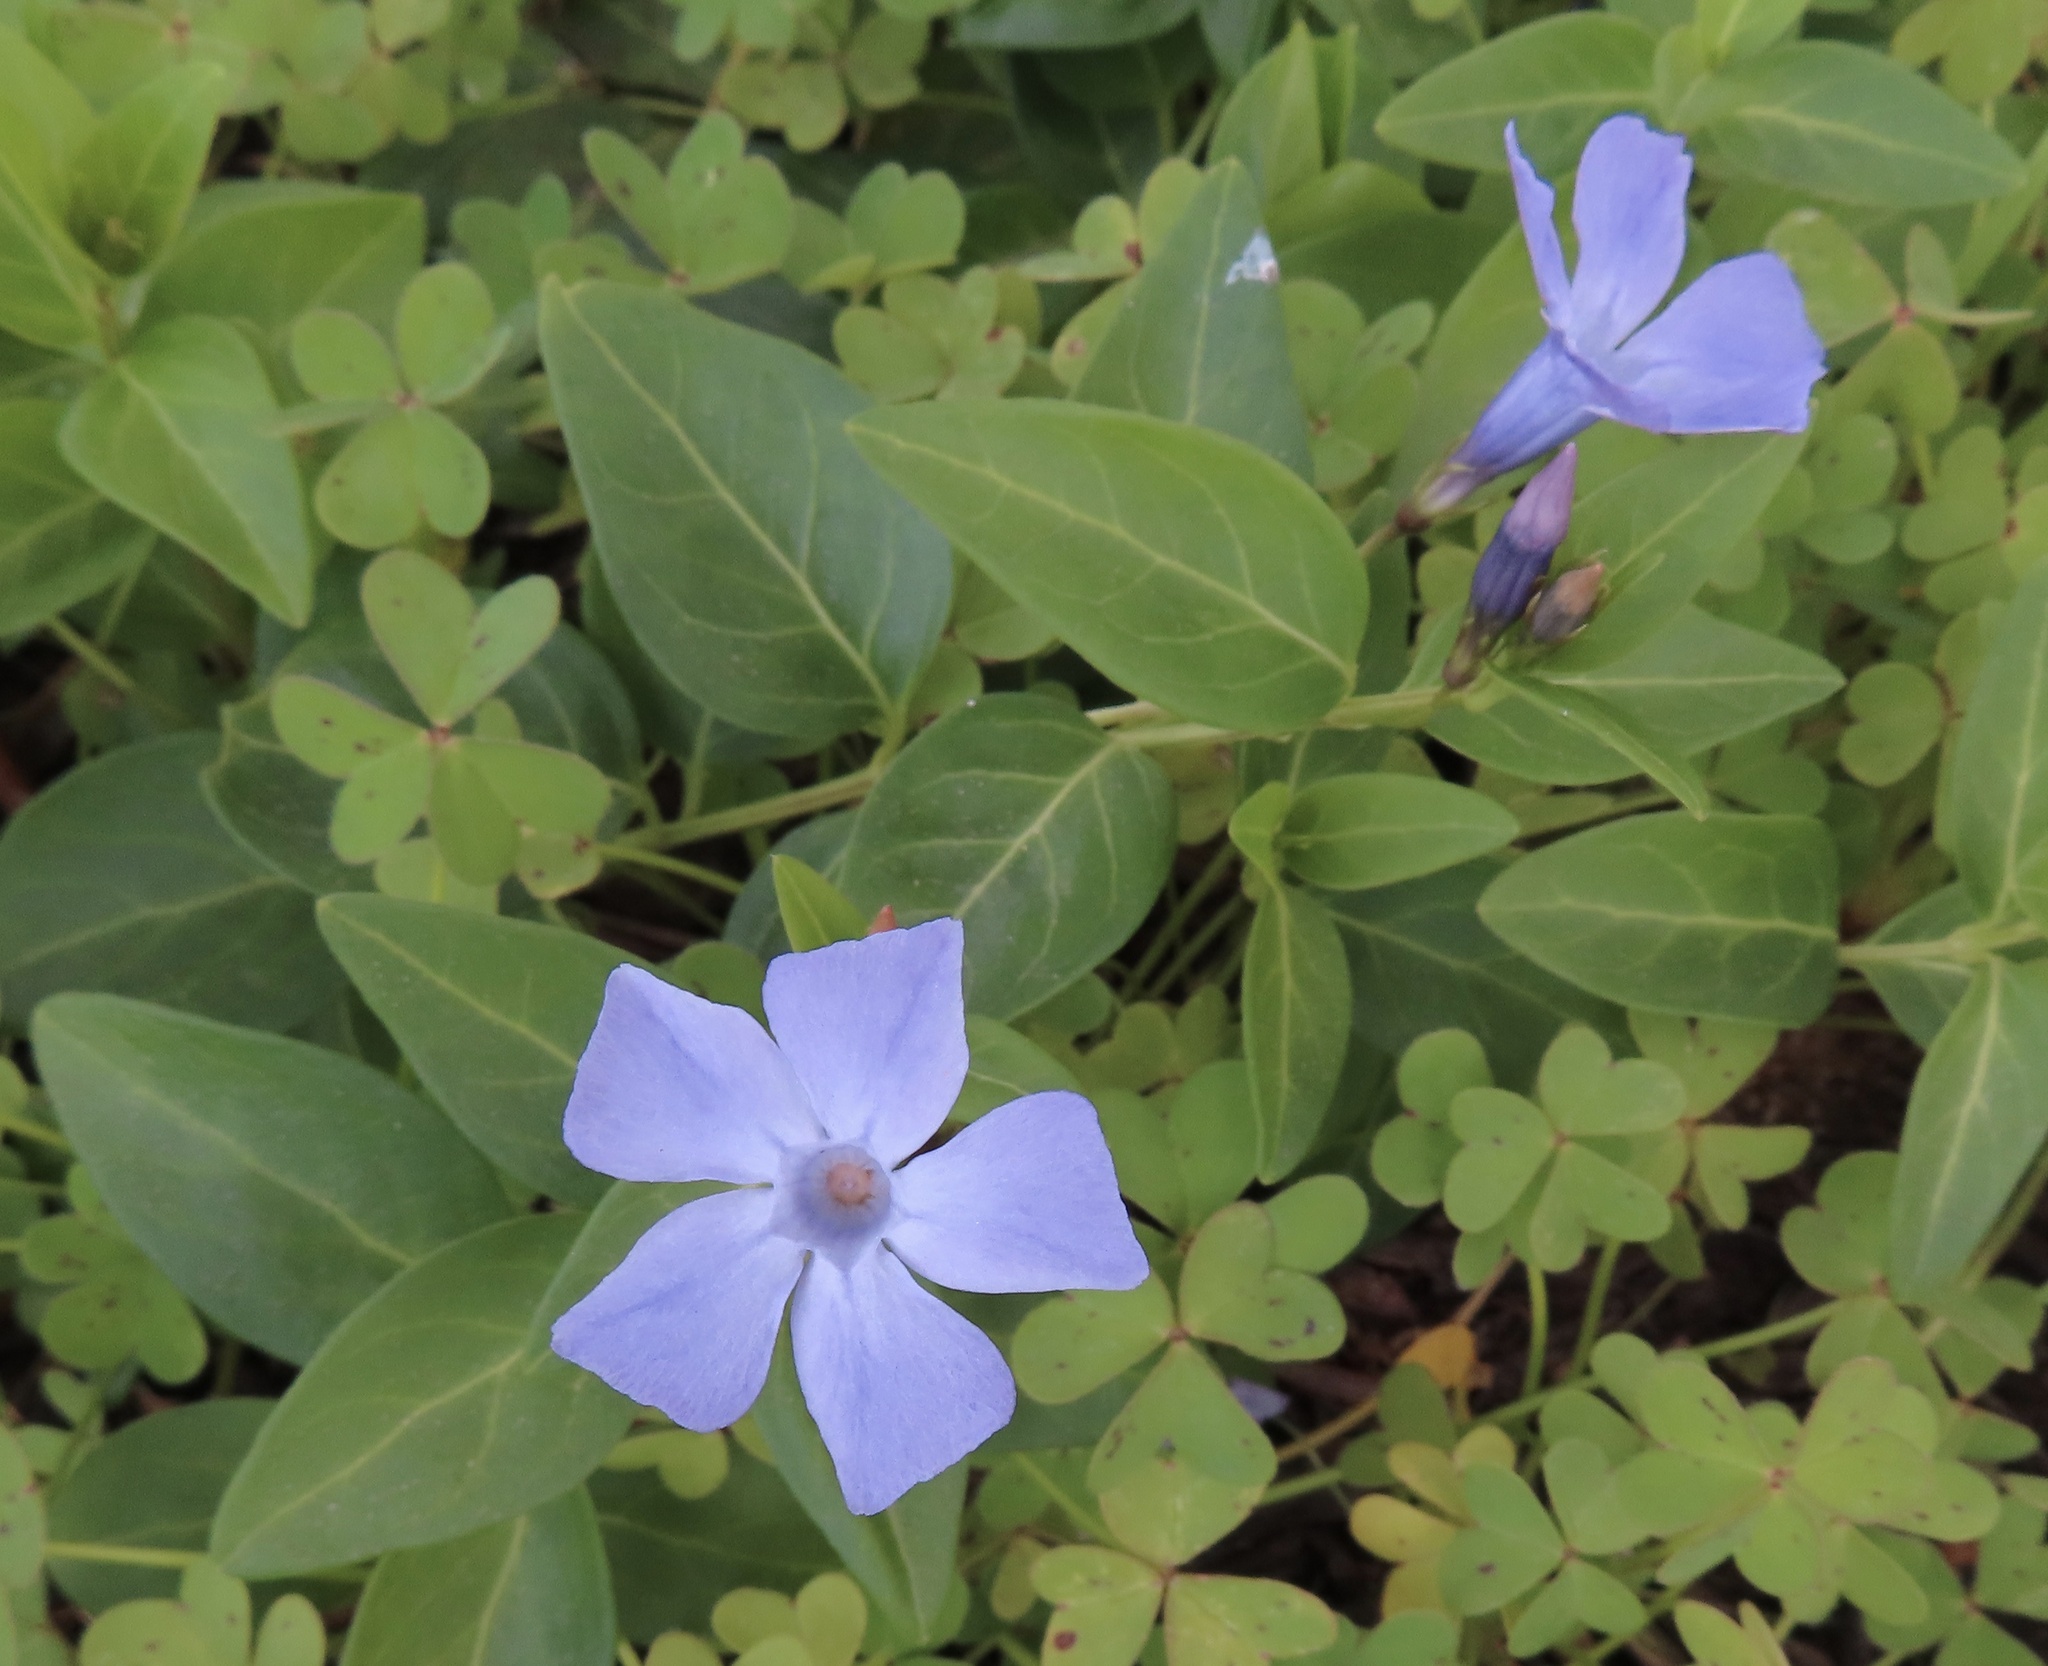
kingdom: Plantae
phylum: Tracheophyta
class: Magnoliopsida
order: Gentianales
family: Apocynaceae
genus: Vinca
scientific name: Vinca difformis
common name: Intermediate periwinkle
